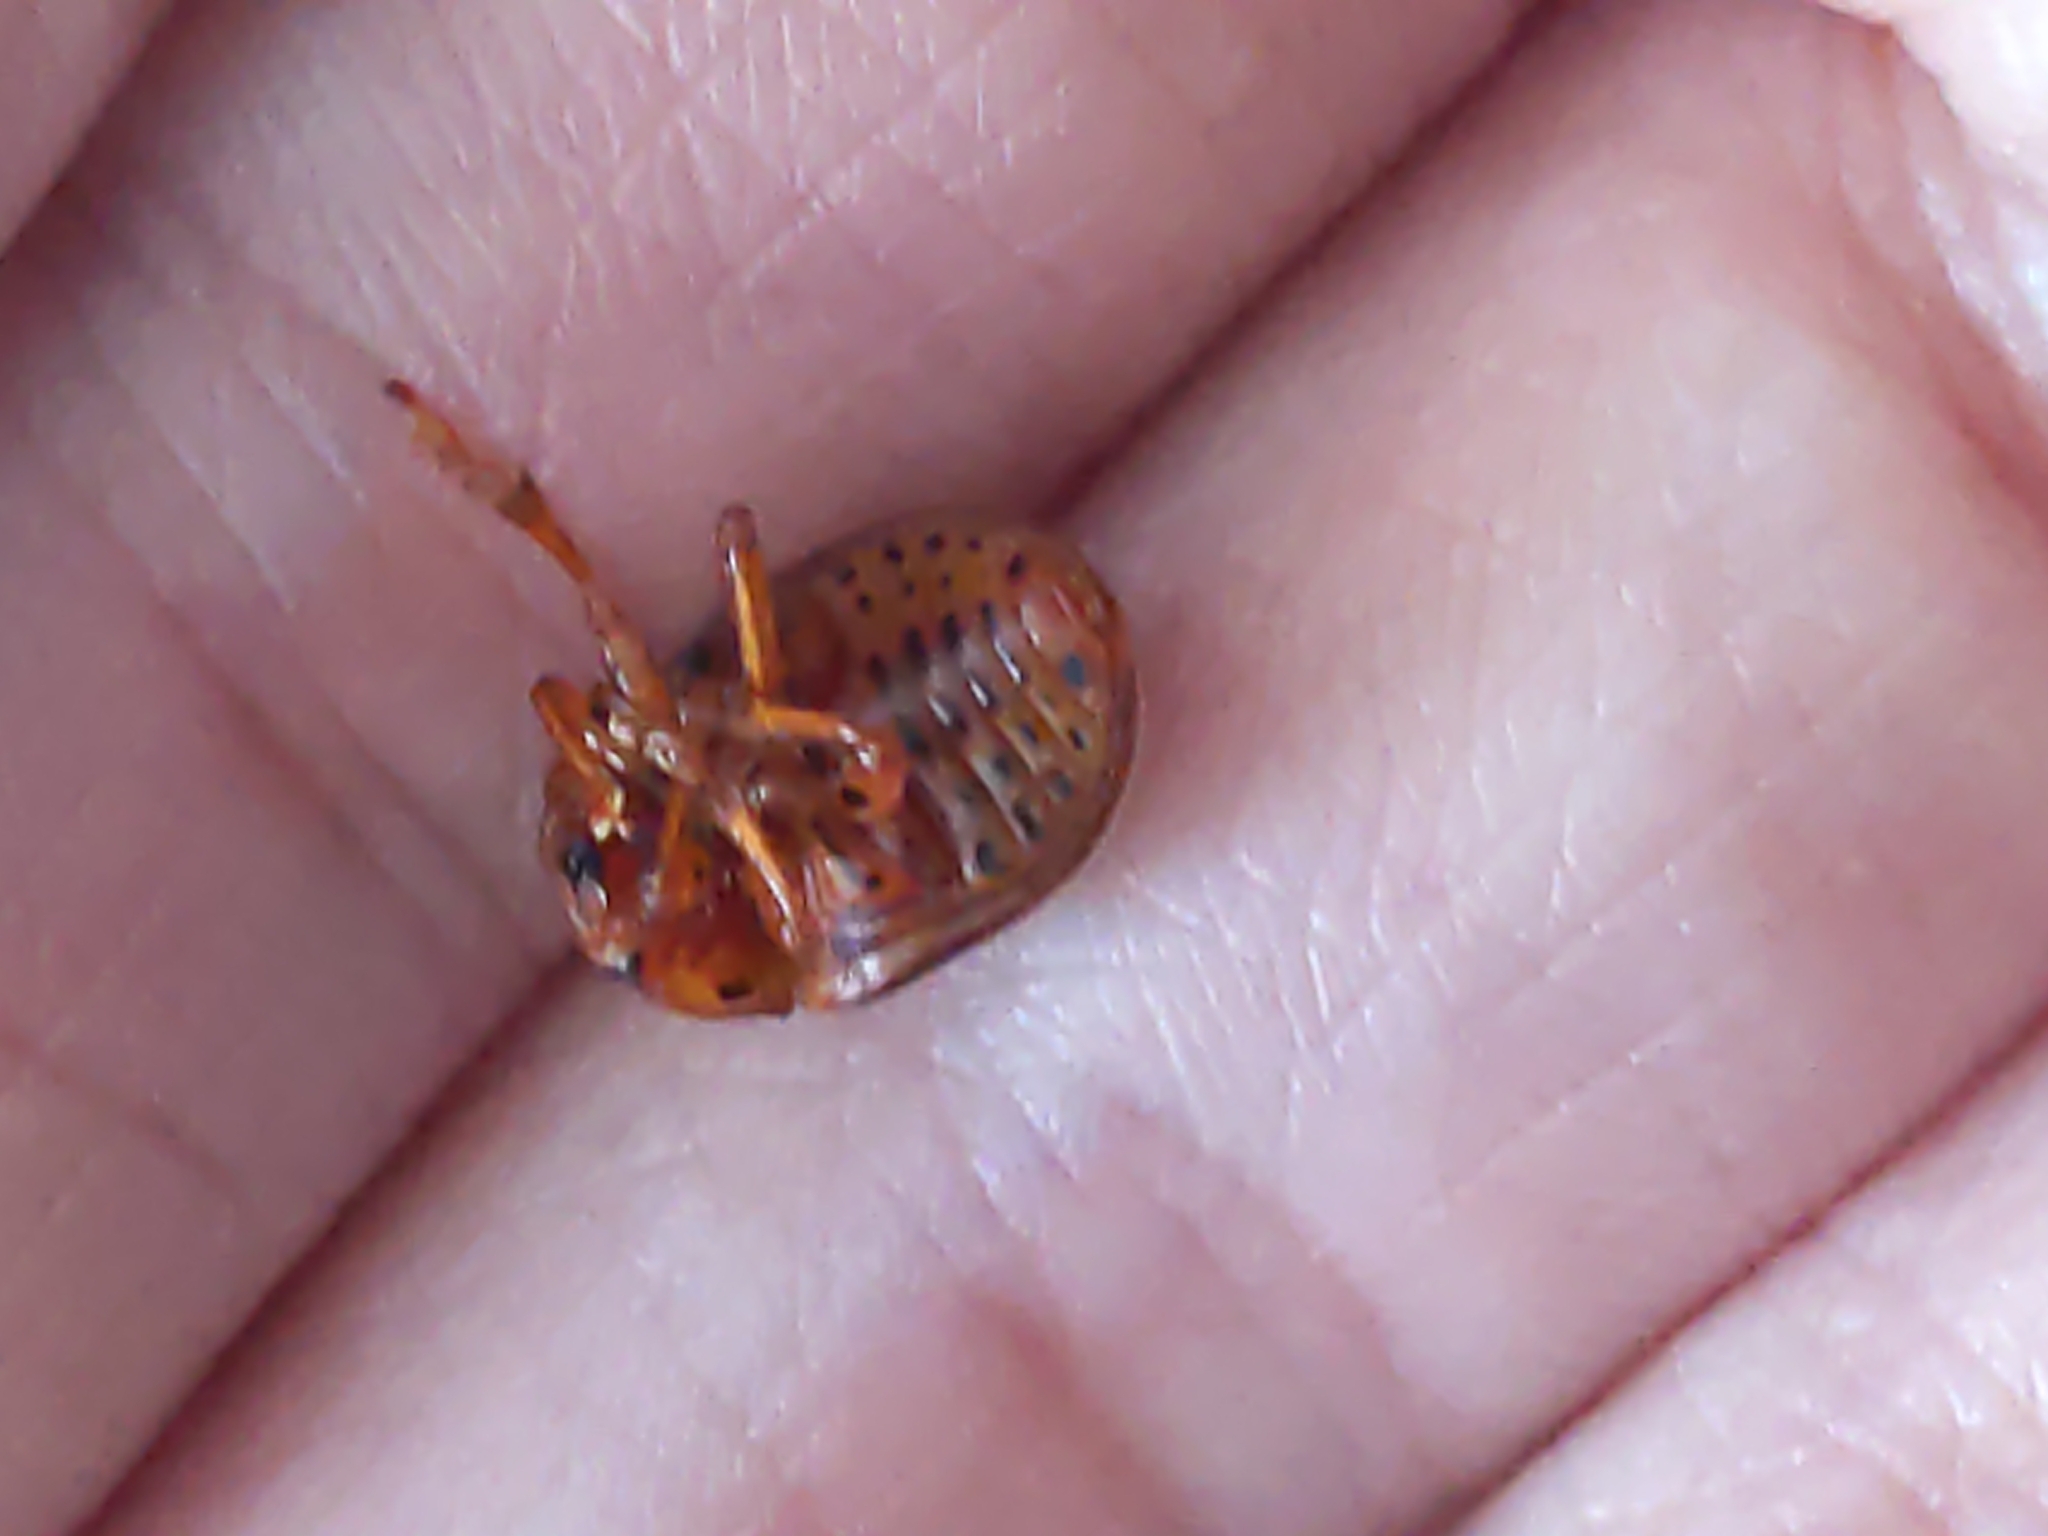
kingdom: Animalia
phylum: Arthropoda
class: Insecta
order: Coleoptera
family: Chrysomelidae
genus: Leptinotarsa
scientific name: Leptinotarsa juncta
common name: False potato beetle
